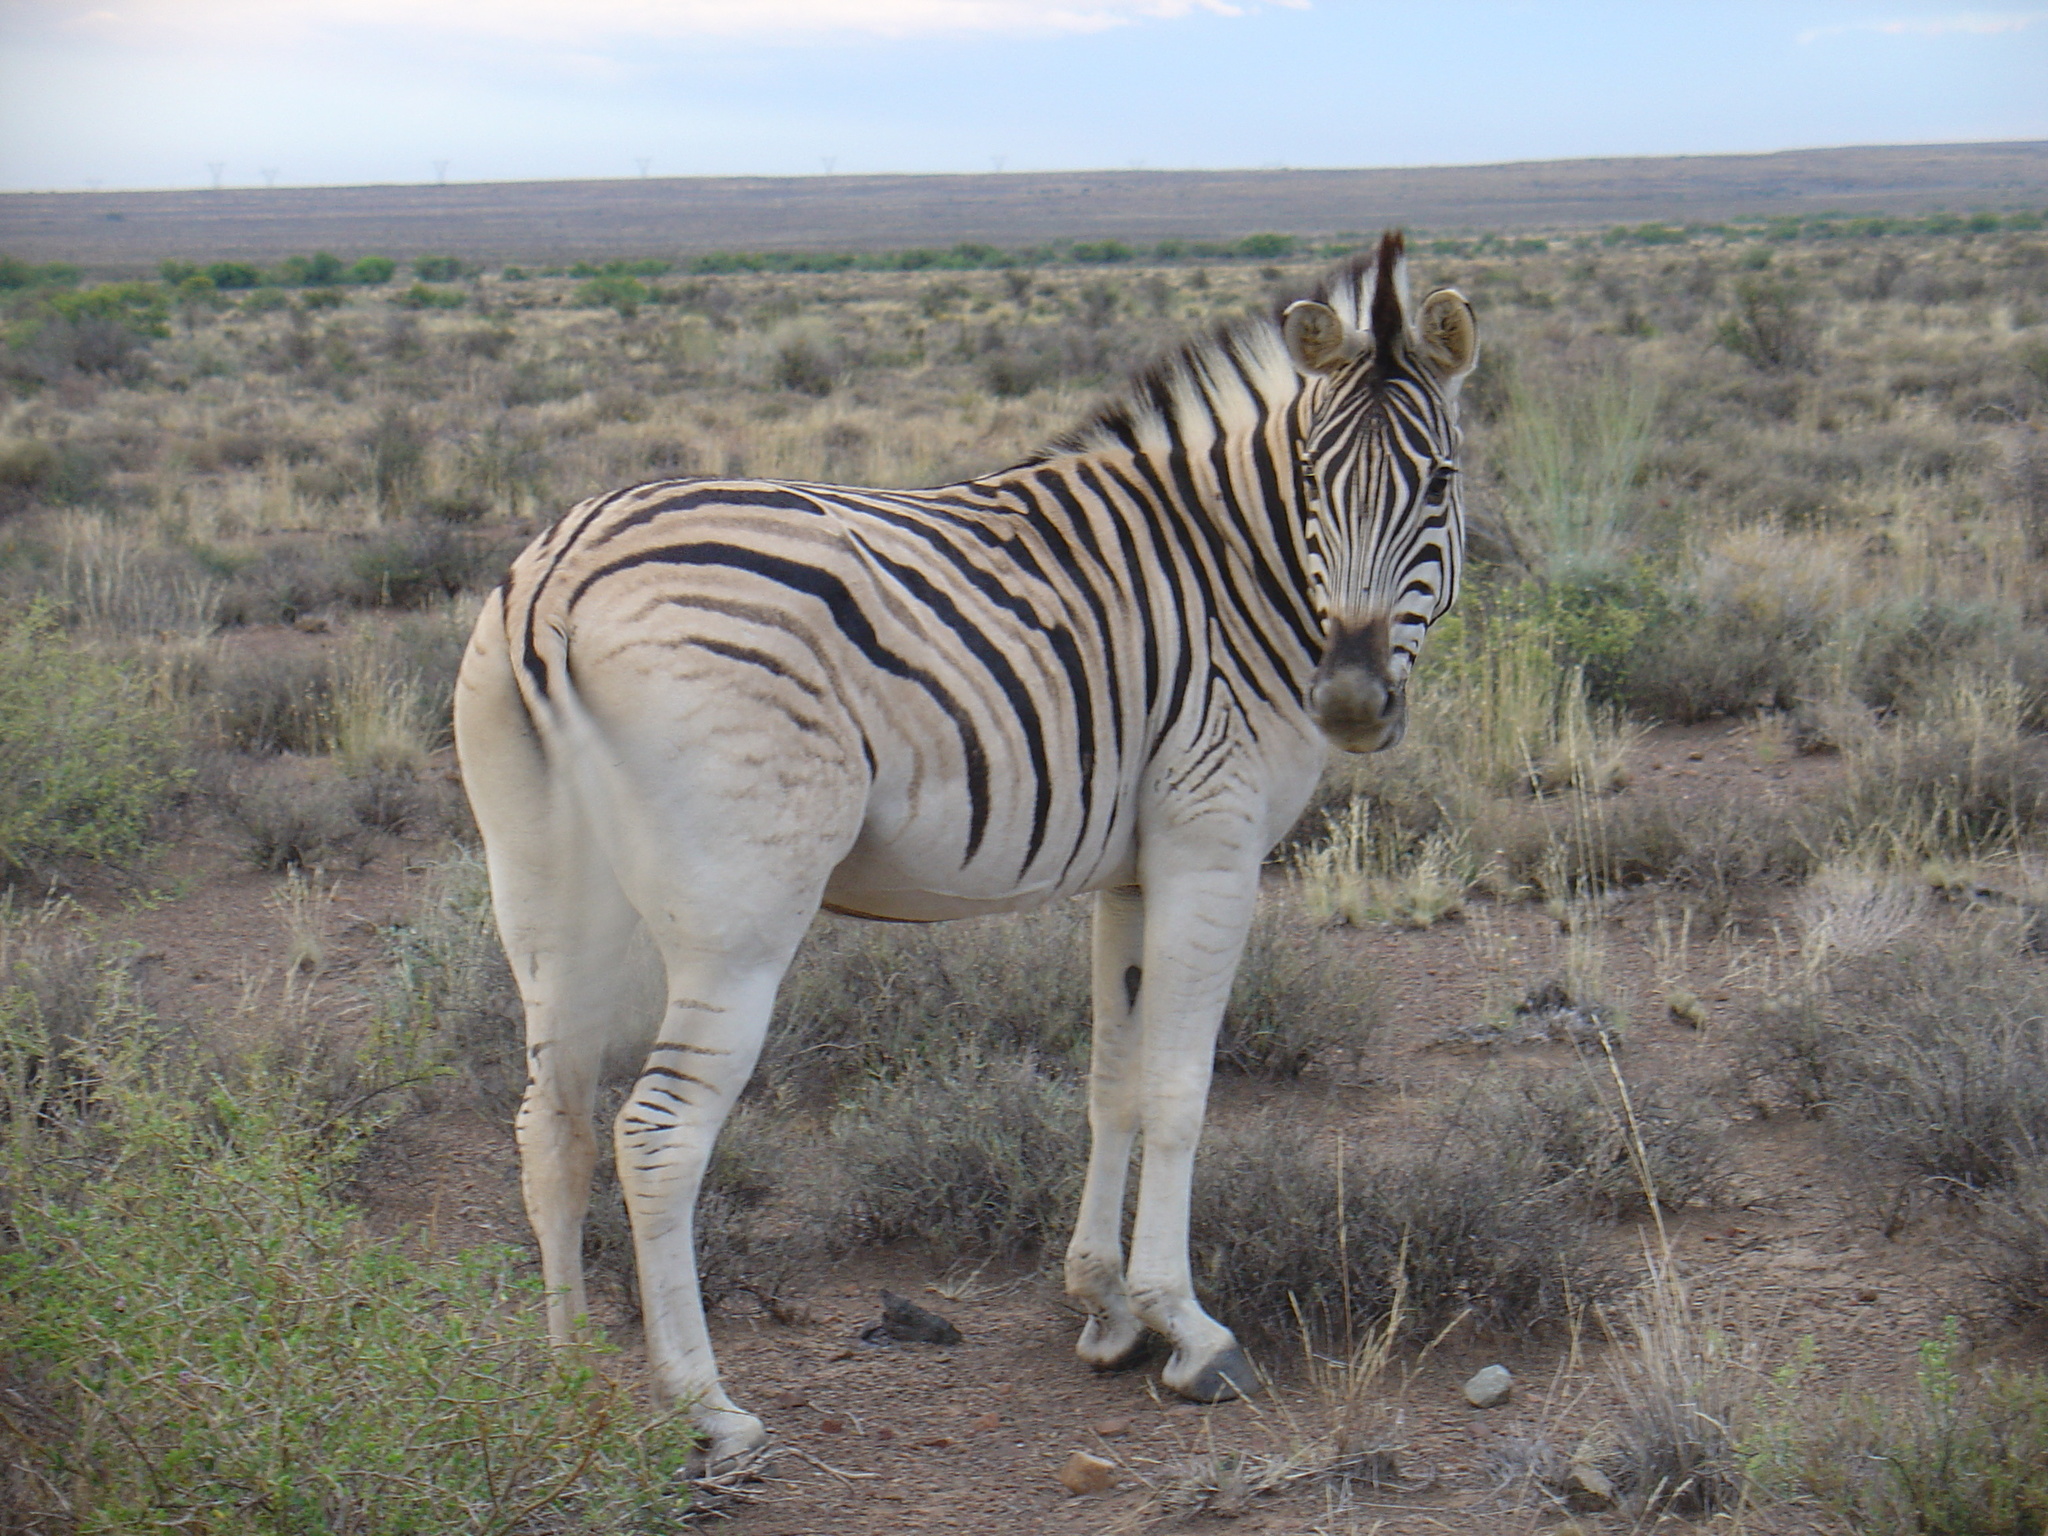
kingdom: Animalia
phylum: Chordata
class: Mammalia
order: Perissodactyla
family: Equidae
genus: Equus
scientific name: Equus quagga
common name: Plains zebra
